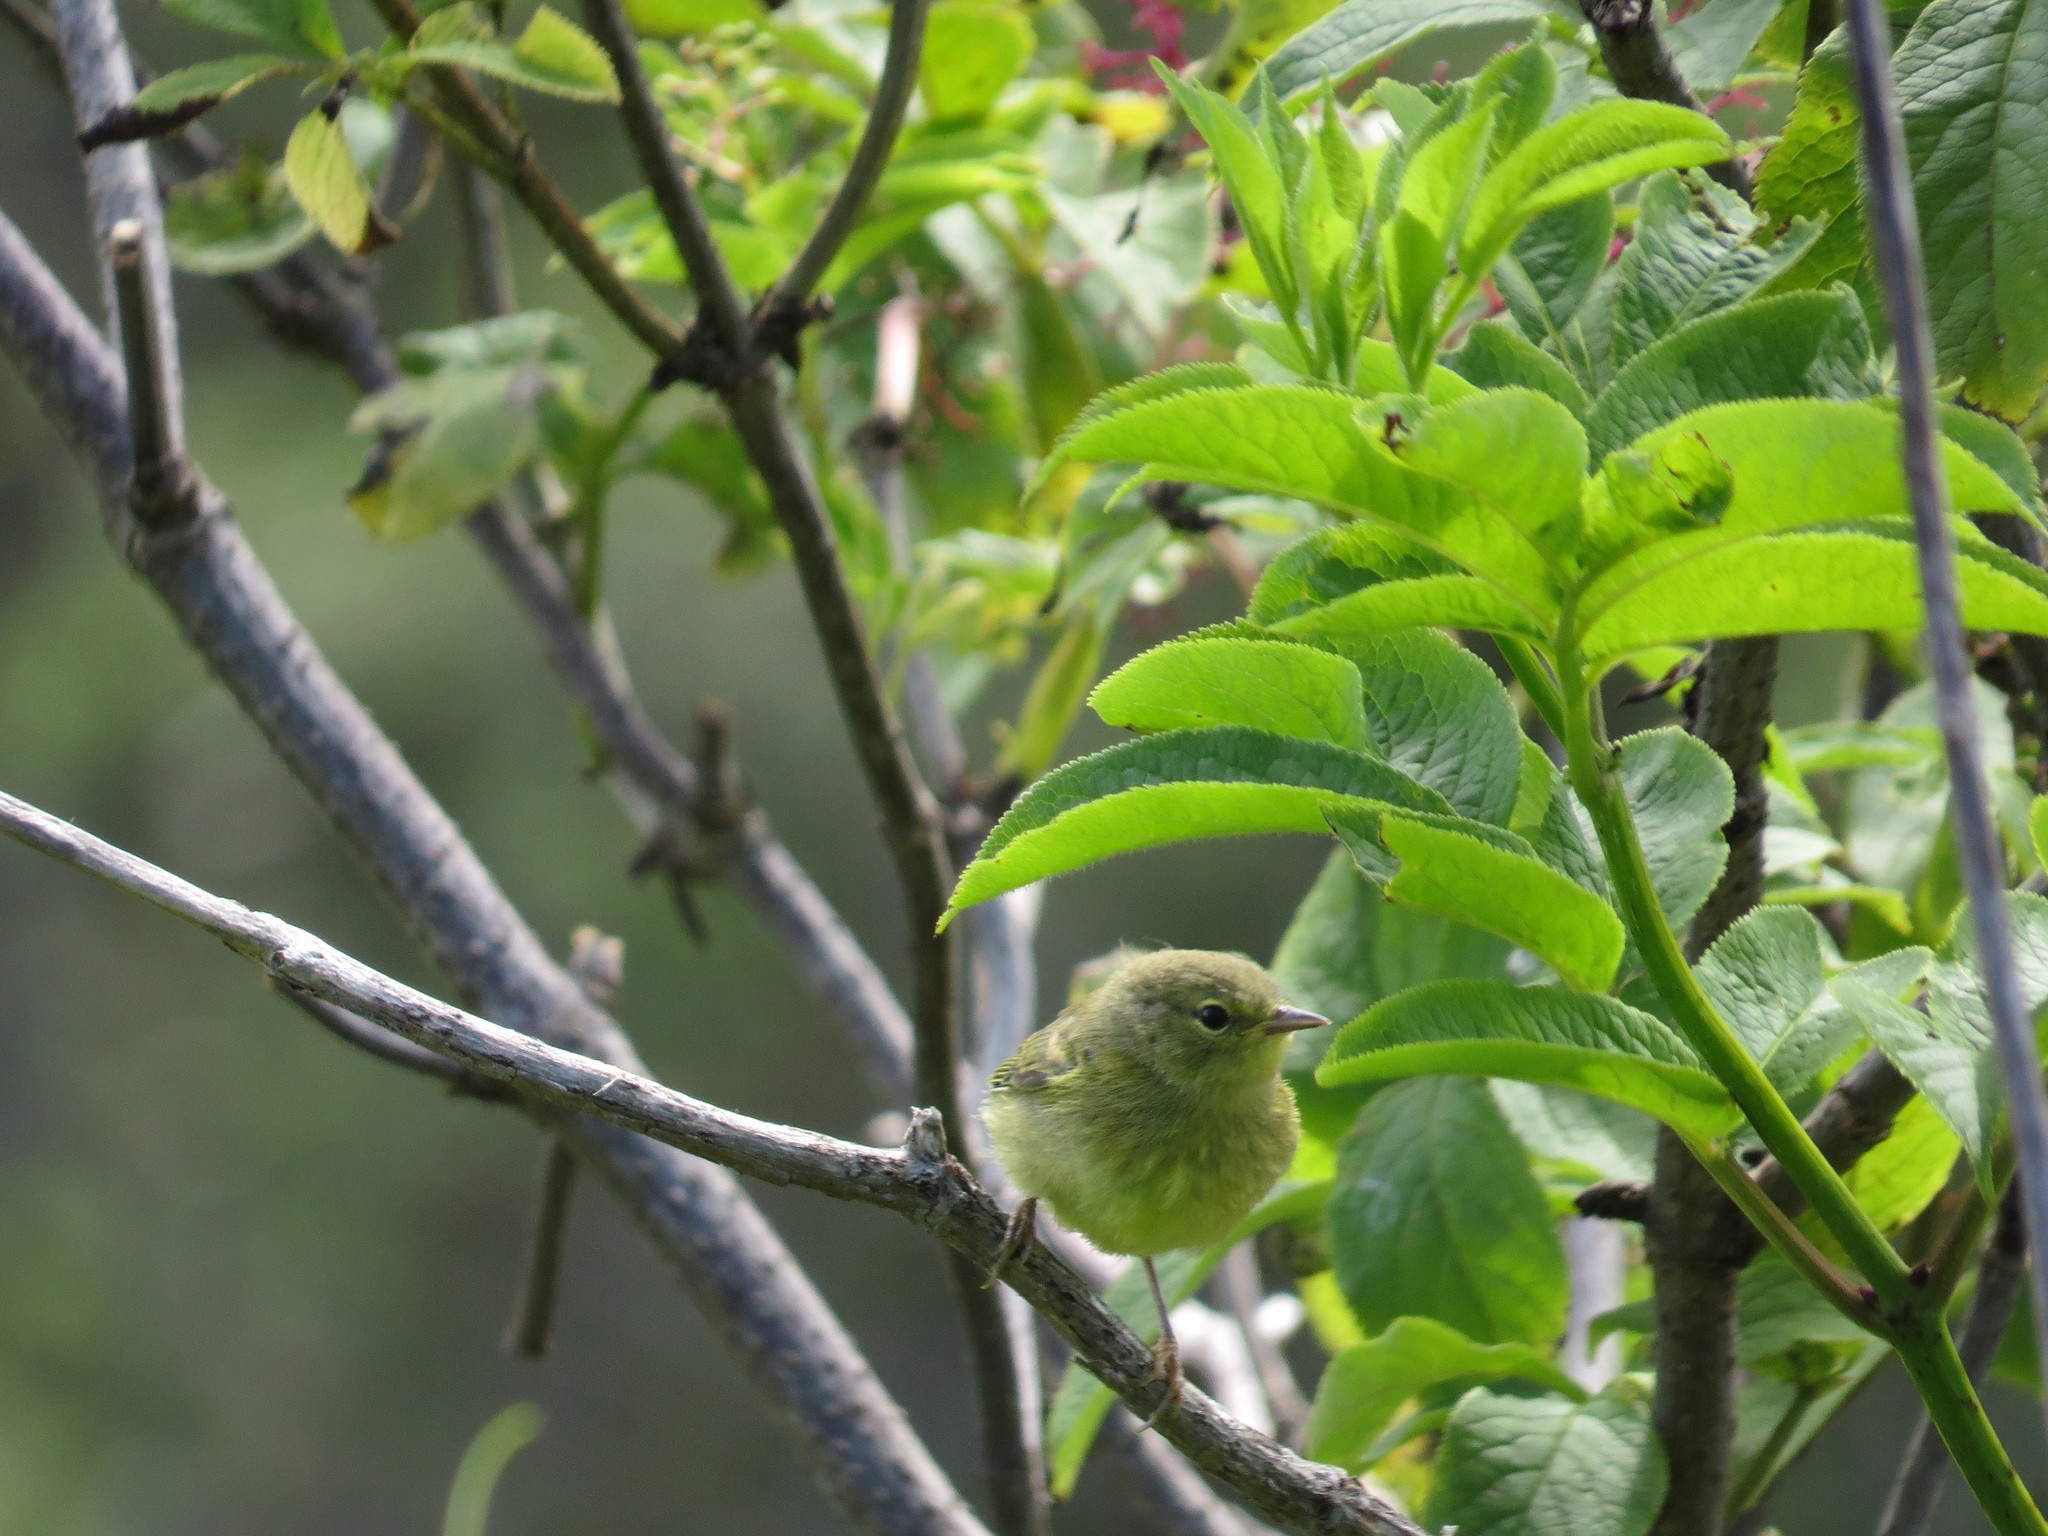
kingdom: Animalia
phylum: Chordata
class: Aves
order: Passeriformes
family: Parulidae
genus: Leiothlypis
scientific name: Leiothlypis celata
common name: Orange-crowned warbler
